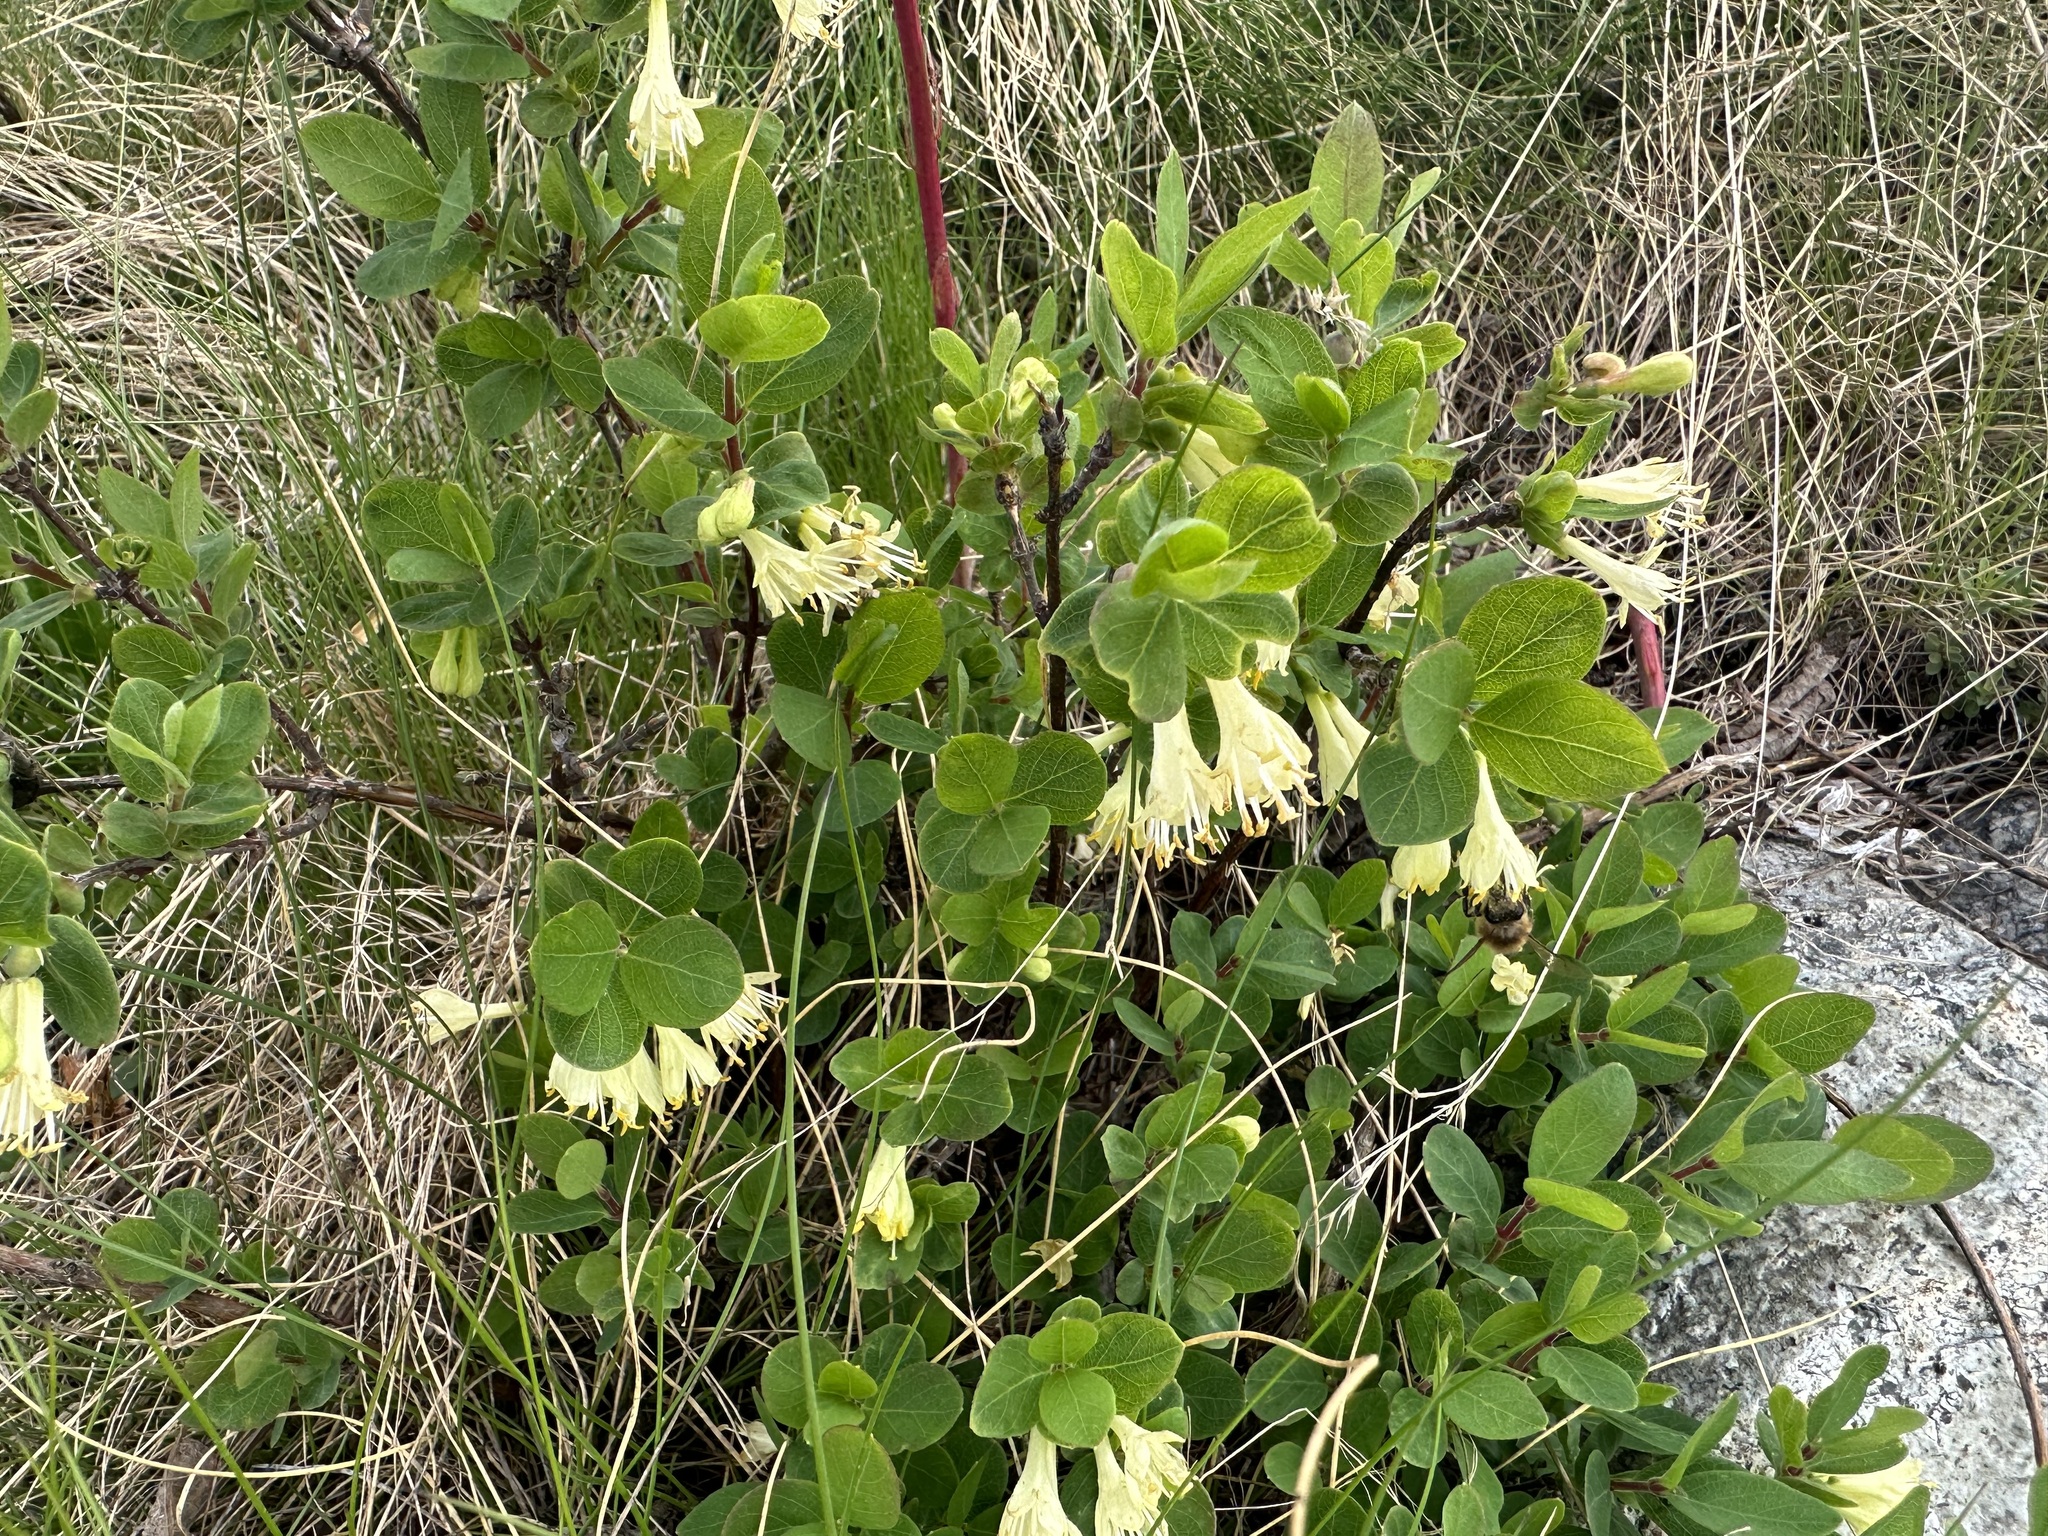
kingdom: Plantae
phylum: Tracheophyta
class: Magnoliopsida
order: Dipsacales
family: Caprifoliaceae
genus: Lonicera
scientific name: Lonicera caerulea
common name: Blue honeysuckle
